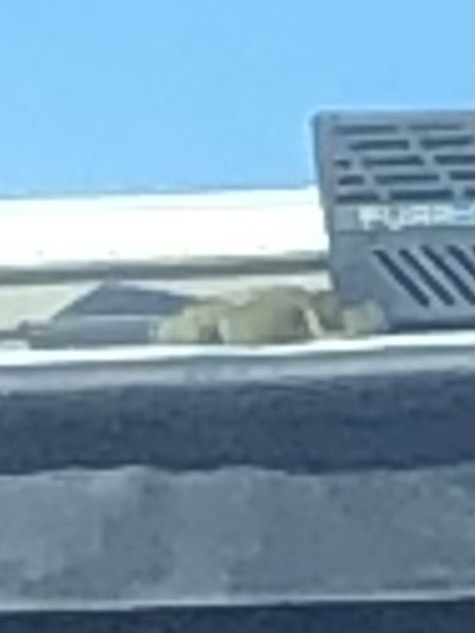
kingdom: Animalia
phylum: Chordata
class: Squamata
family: Iguanidae
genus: Iguana
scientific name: Iguana iguana
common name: Green iguana
